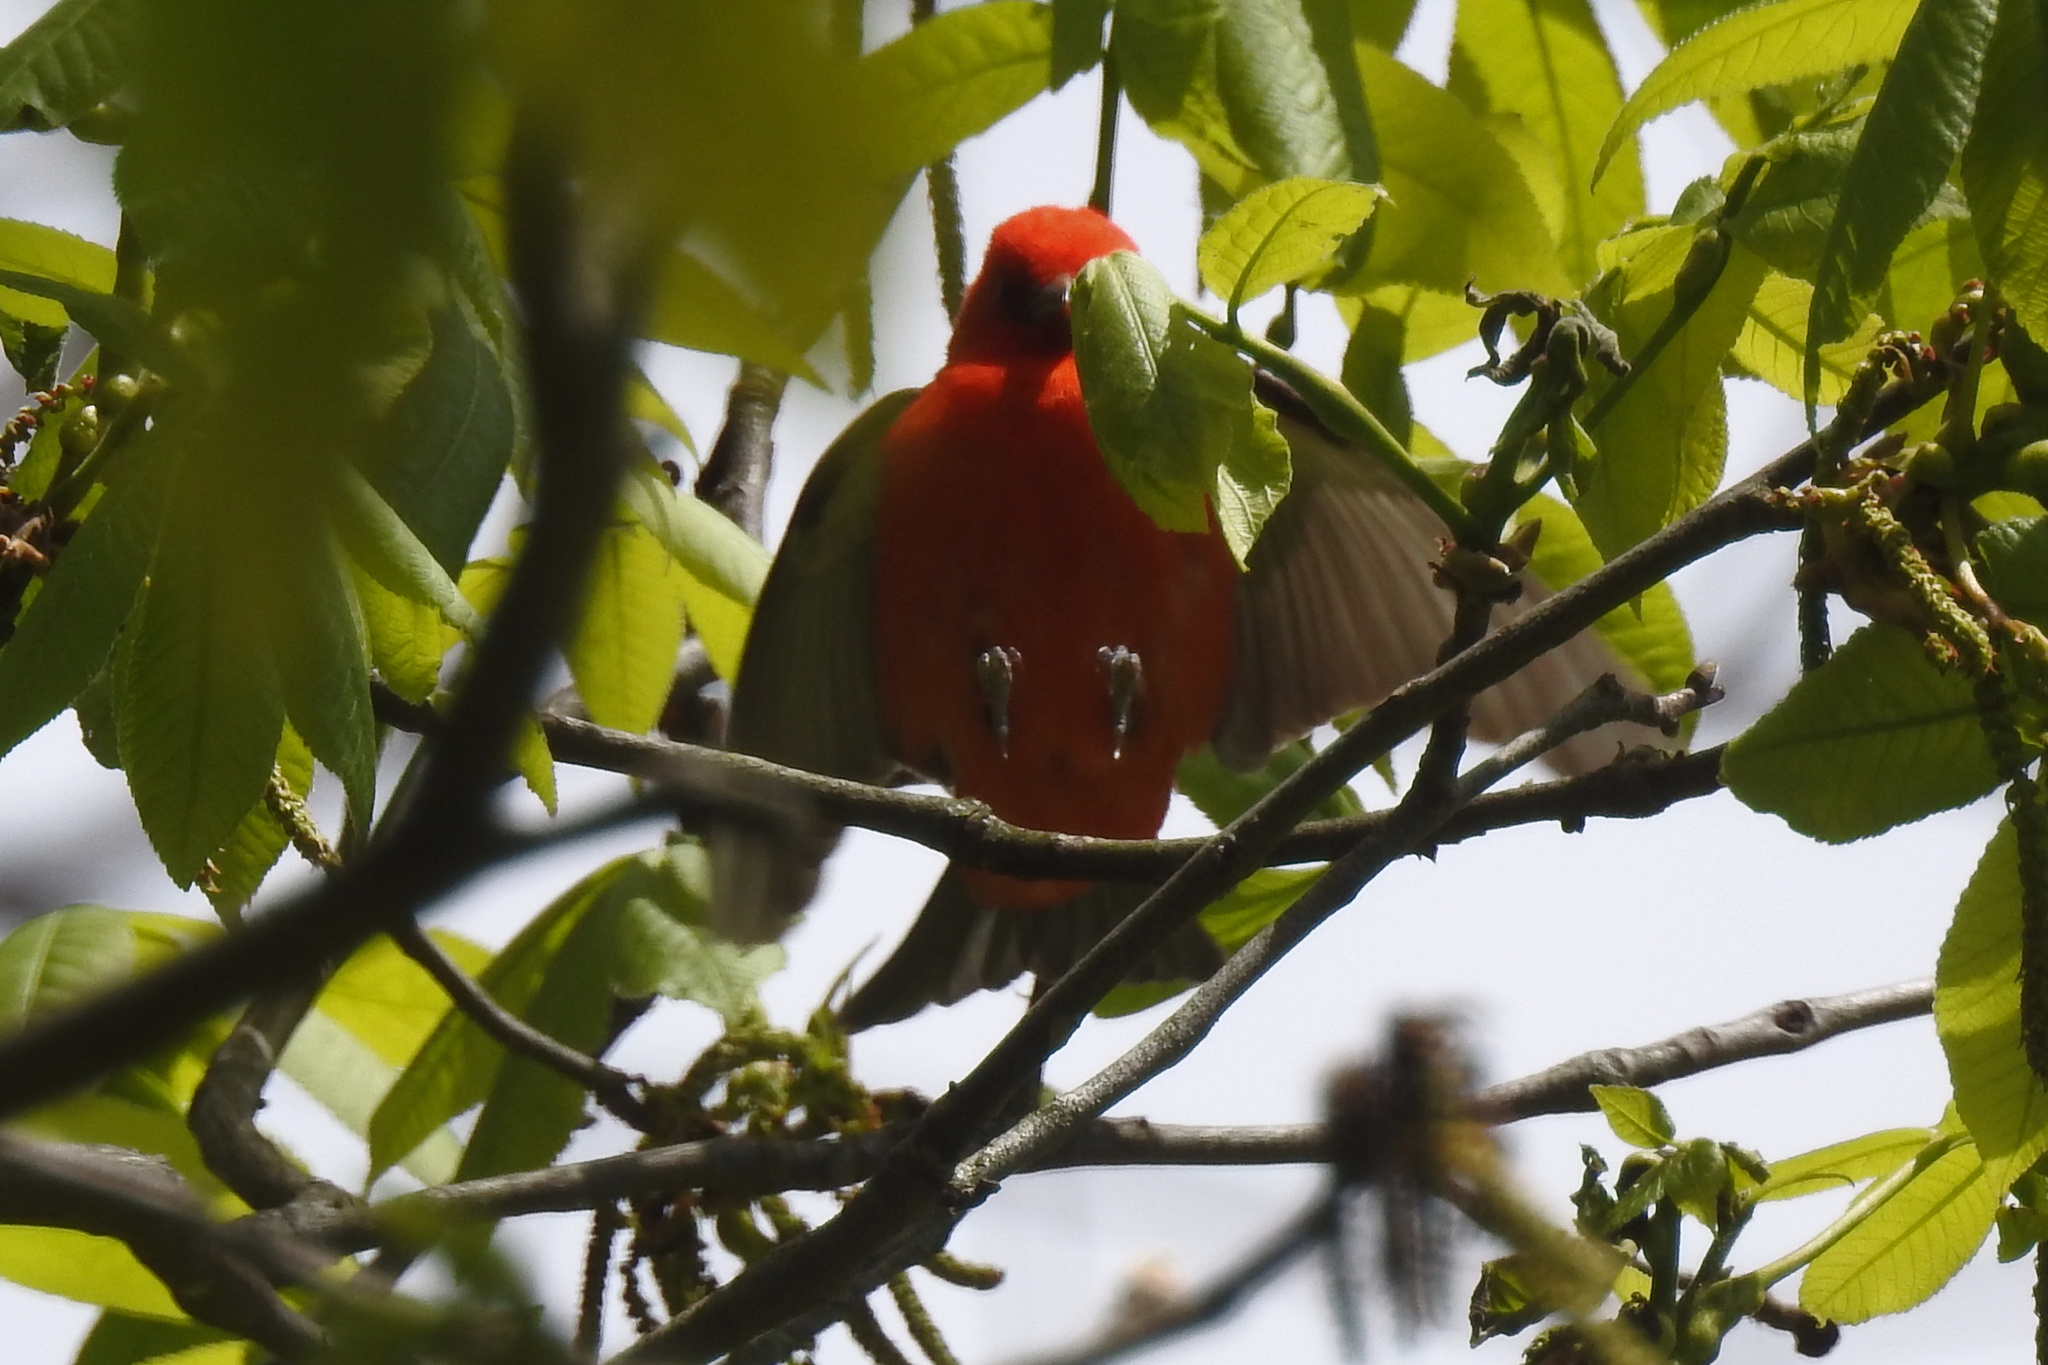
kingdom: Animalia
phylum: Chordata
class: Aves
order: Passeriformes
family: Cardinalidae
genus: Piranga
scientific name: Piranga olivacea
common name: Scarlet tanager
